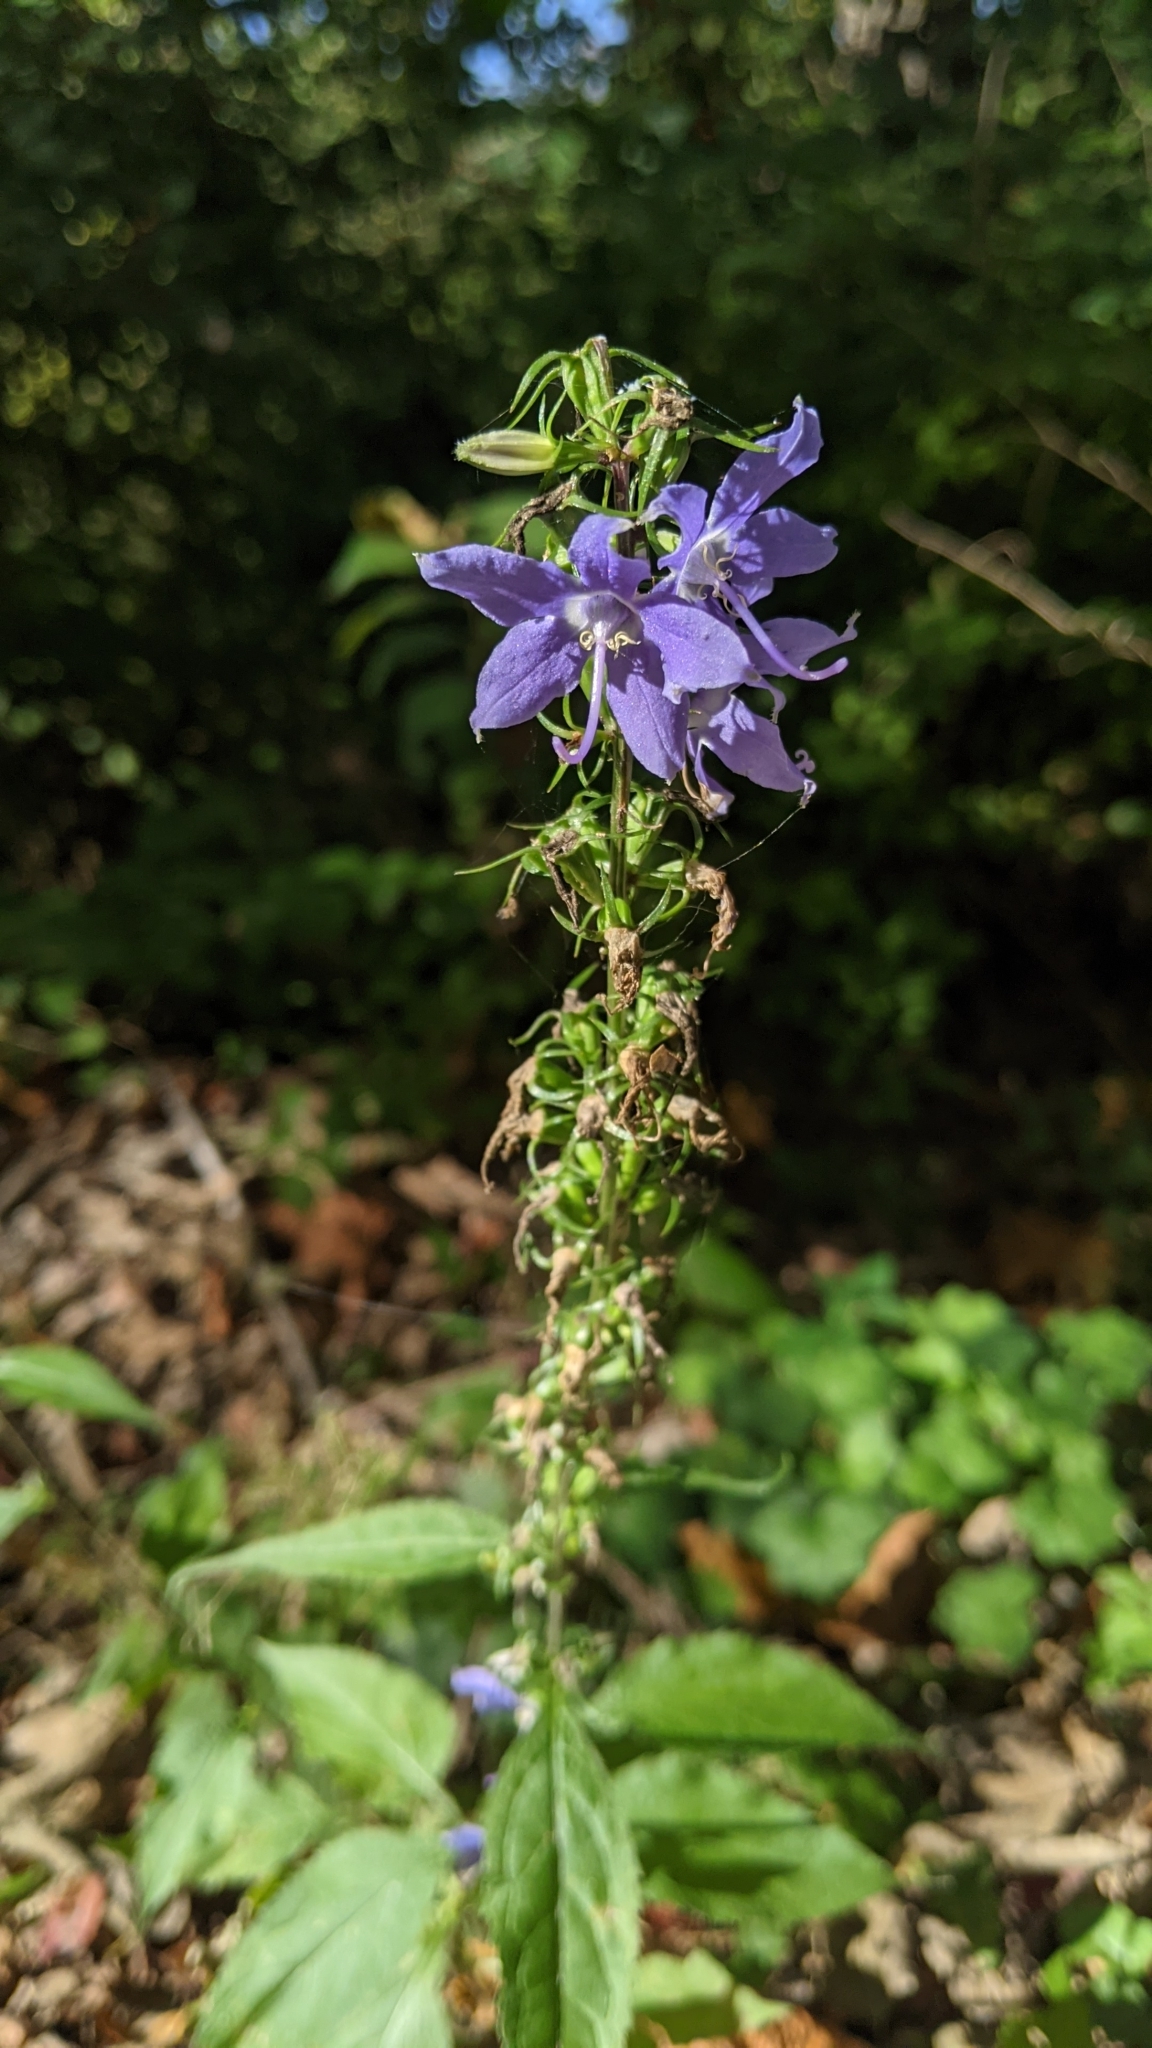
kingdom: Plantae
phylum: Tracheophyta
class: Magnoliopsida
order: Asterales
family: Campanulaceae
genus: Campanulastrum
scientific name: Campanulastrum americanum
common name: American bellflower
